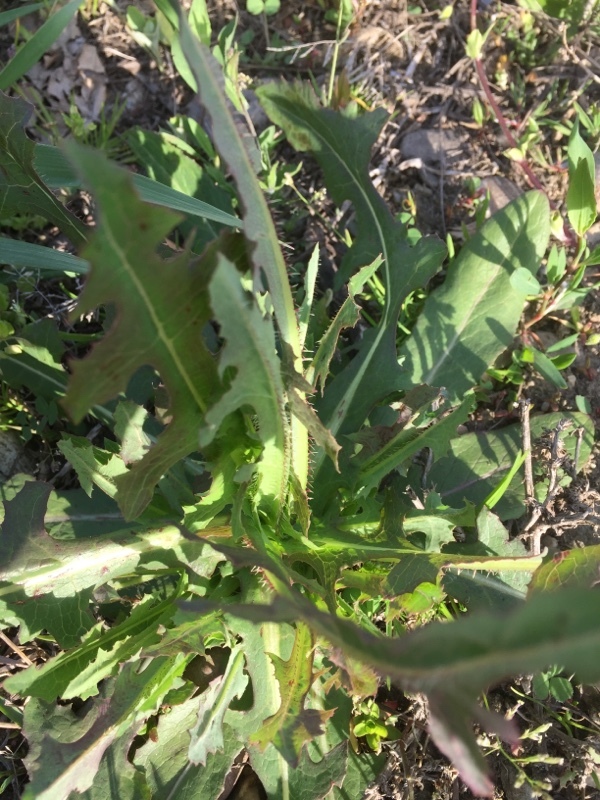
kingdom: Plantae
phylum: Tracheophyta
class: Magnoliopsida
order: Asterales
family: Asteraceae
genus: Lactuca
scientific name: Lactuca serriola
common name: Prickly lettuce
